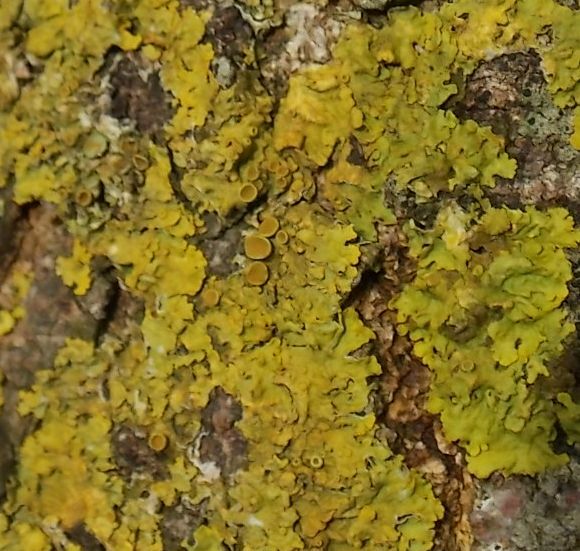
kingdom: Fungi
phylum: Ascomycota
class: Lecanoromycetes
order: Teloschistales
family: Teloschistaceae
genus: Xanthoria
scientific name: Xanthoria parietina
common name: Common orange lichen
